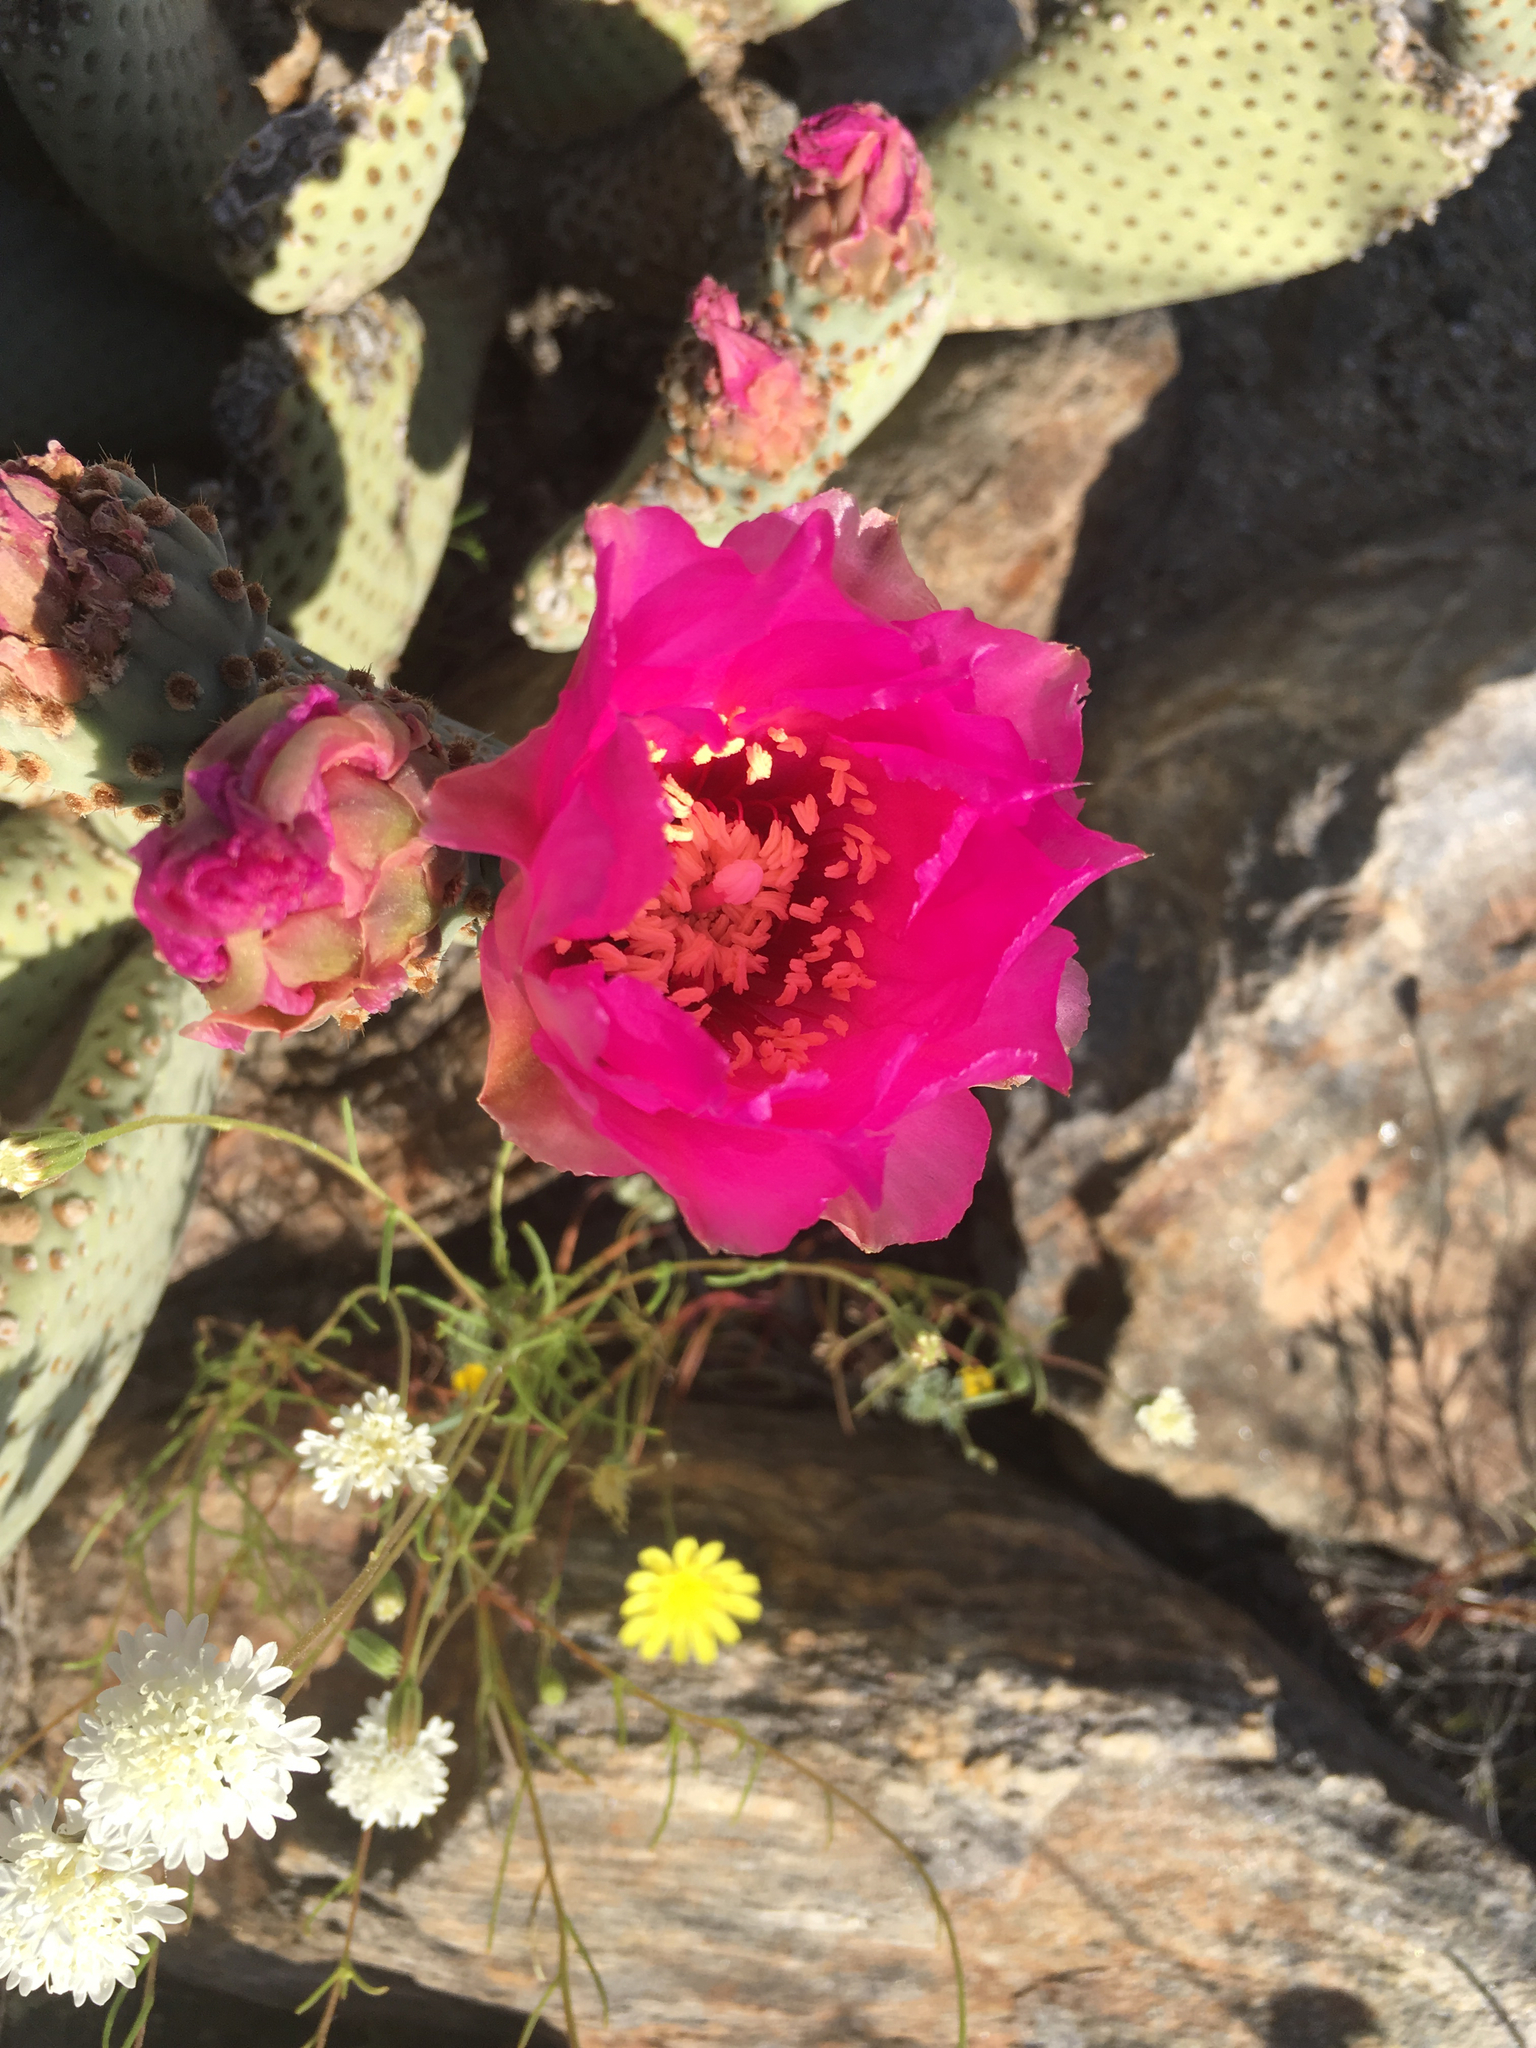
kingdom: Plantae
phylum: Tracheophyta
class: Magnoliopsida
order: Caryophyllales
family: Cactaceae
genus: Opuntia
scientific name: Opuntia basilaris
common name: Beavertail prickly-pear
